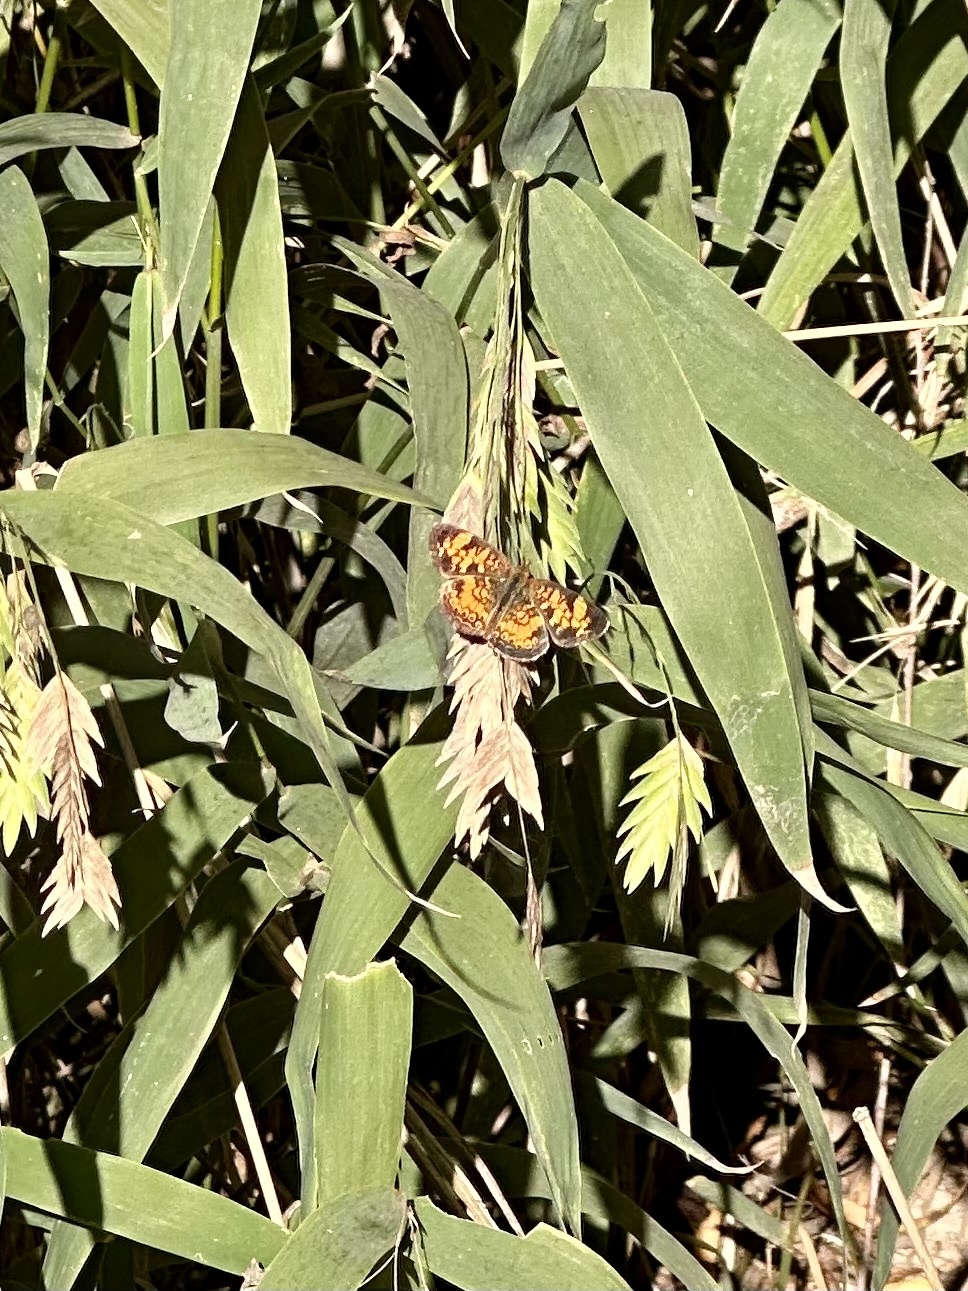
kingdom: Animalia
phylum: Arthropoda
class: Insecta
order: Lepidoptera
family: Nymphalidae
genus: Phyciodes
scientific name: Phyciodes tharos
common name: Pearl crescent
